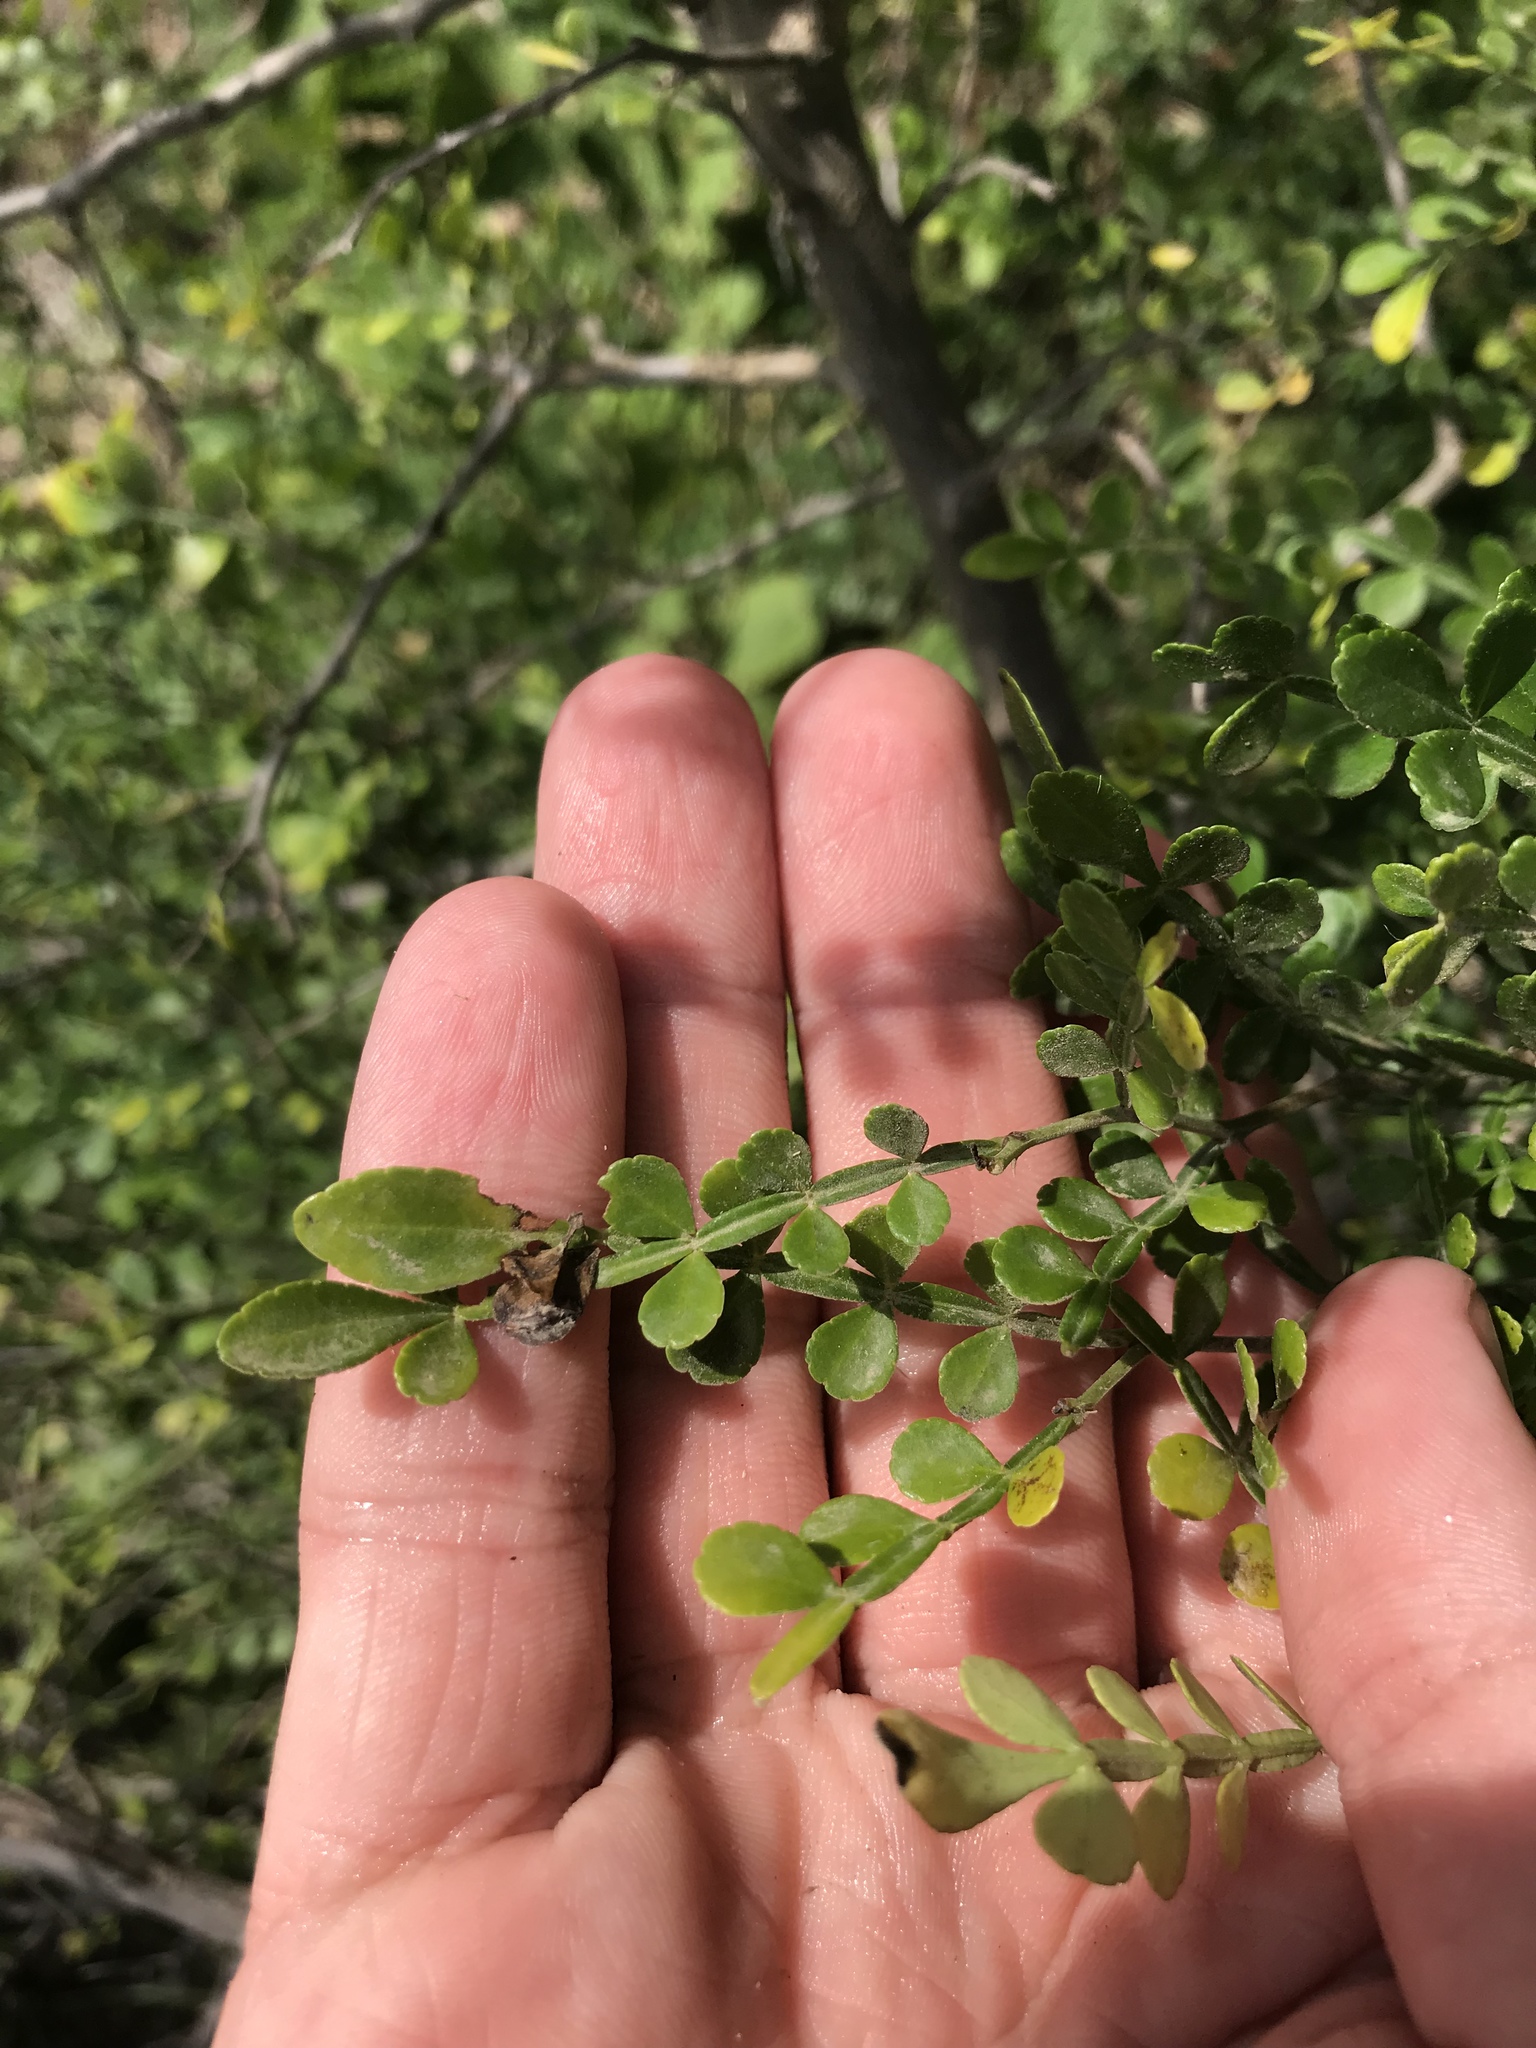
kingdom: Plantae
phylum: Tracheophyta
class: Magnoliopsida
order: Sapindales
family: Rutaceae
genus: Zanthoxylum
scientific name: Zanthoxylum fagara
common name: Lime prickly-ash
